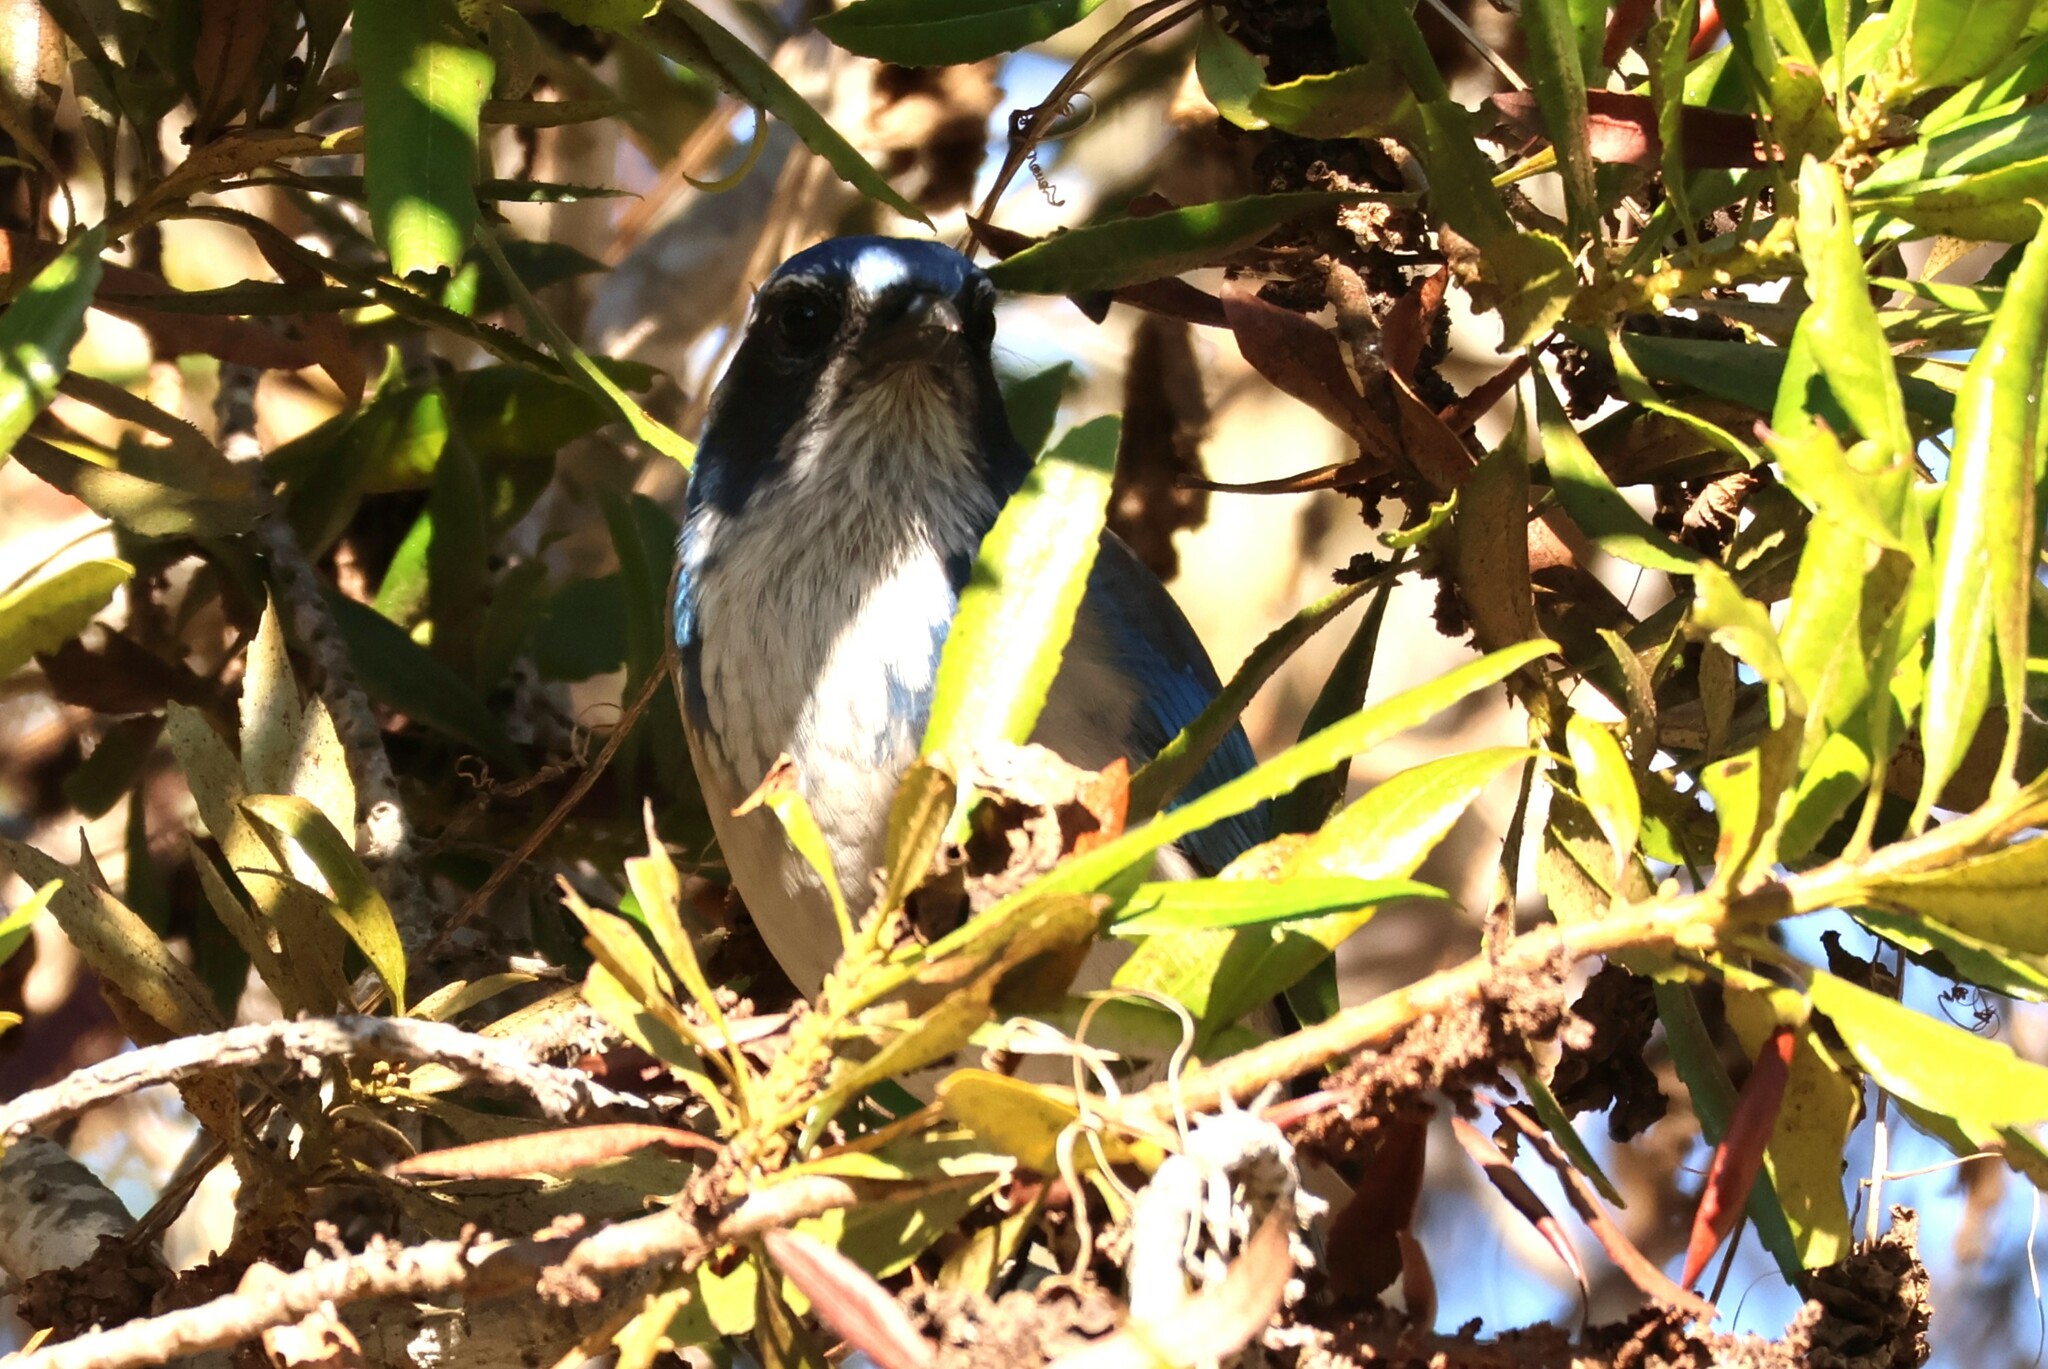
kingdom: Animalia
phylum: Chordata
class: Aves
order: Passeriformes
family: Corvidae
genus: Aphelocoma
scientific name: Aphelocoma californica
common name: California scrub-jay
